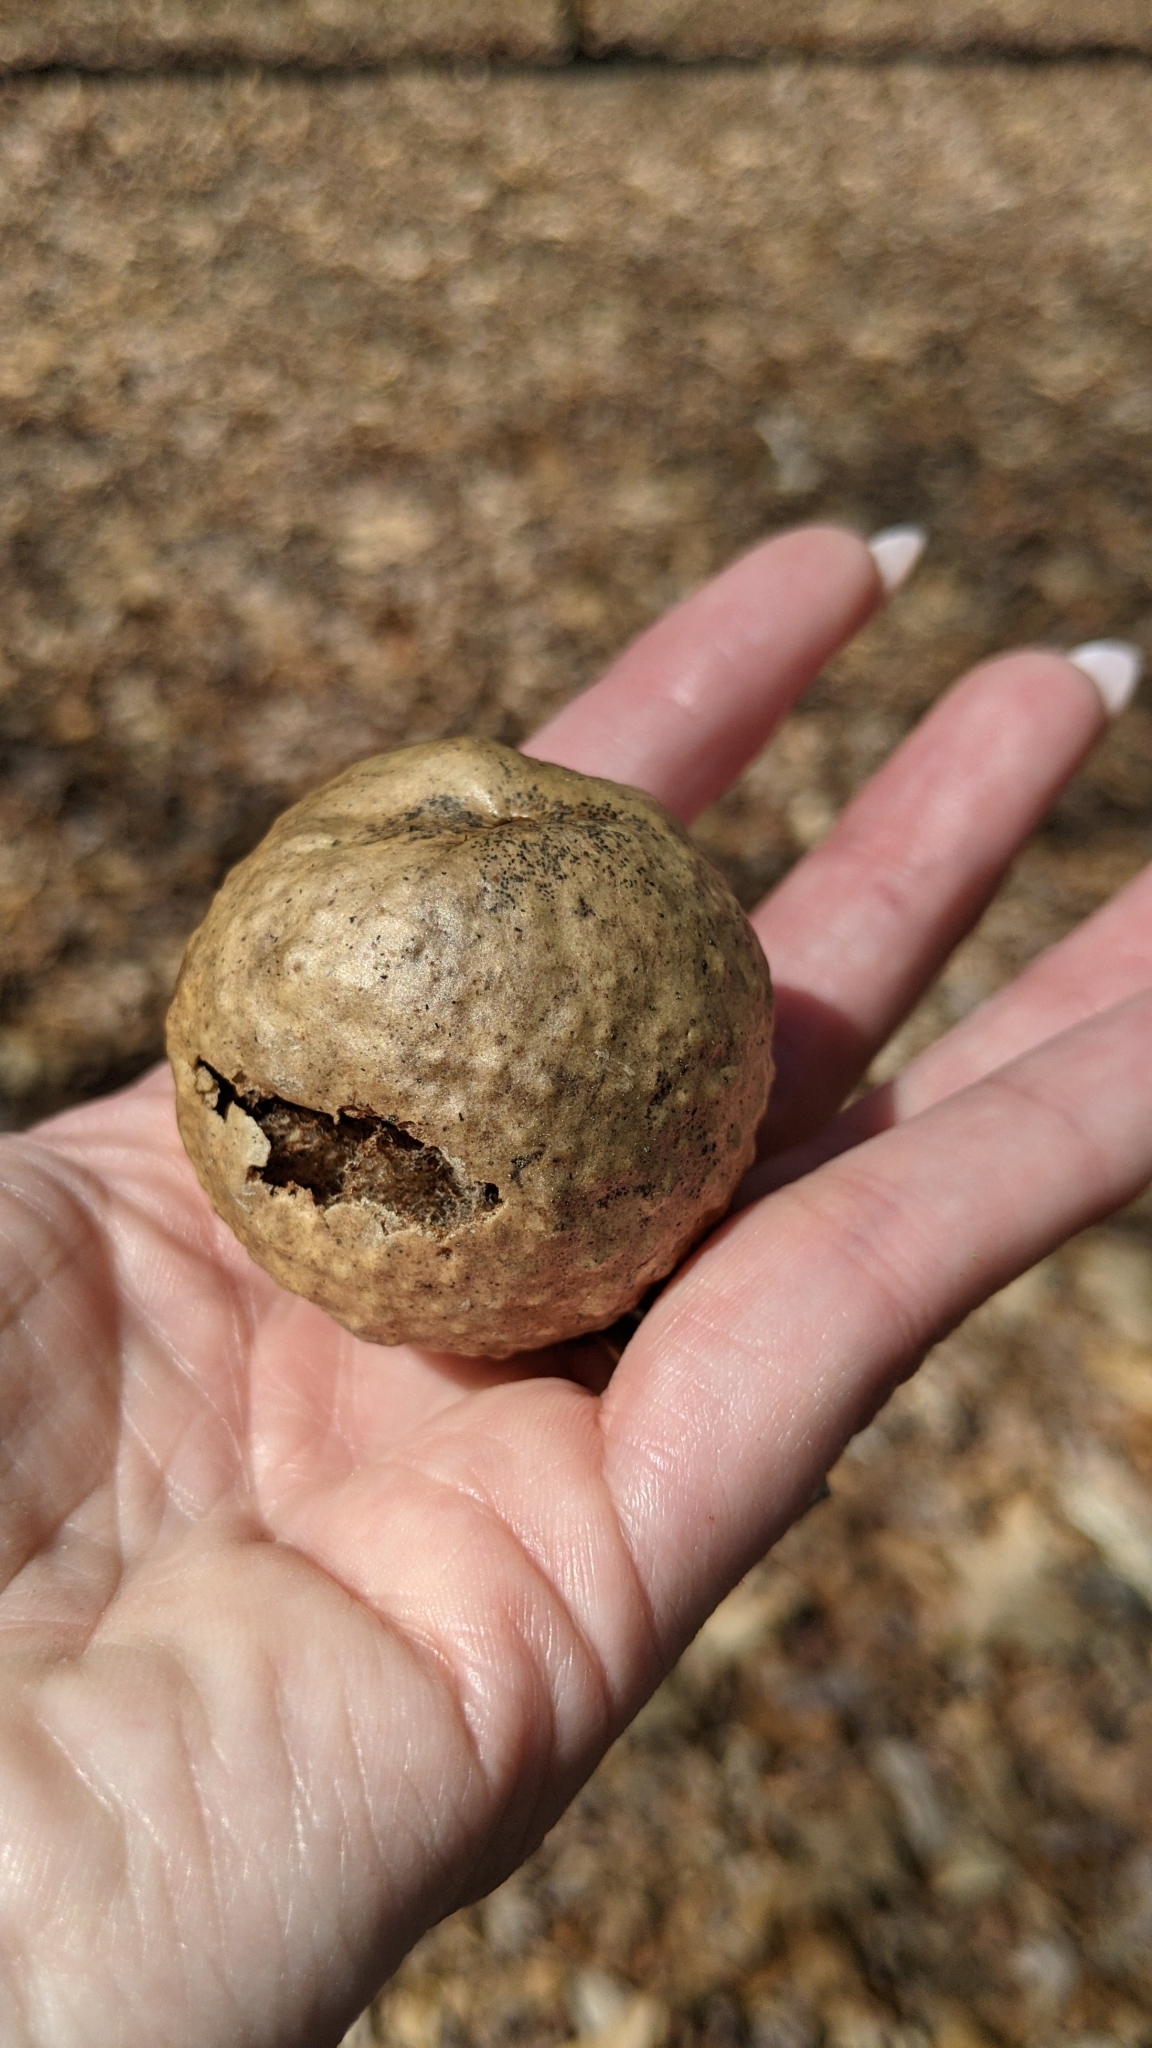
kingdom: Animalia
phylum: Arthropoda
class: Insecta
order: Hymenoptera
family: Cynipidae
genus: Amphibolips
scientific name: Amphibolips
